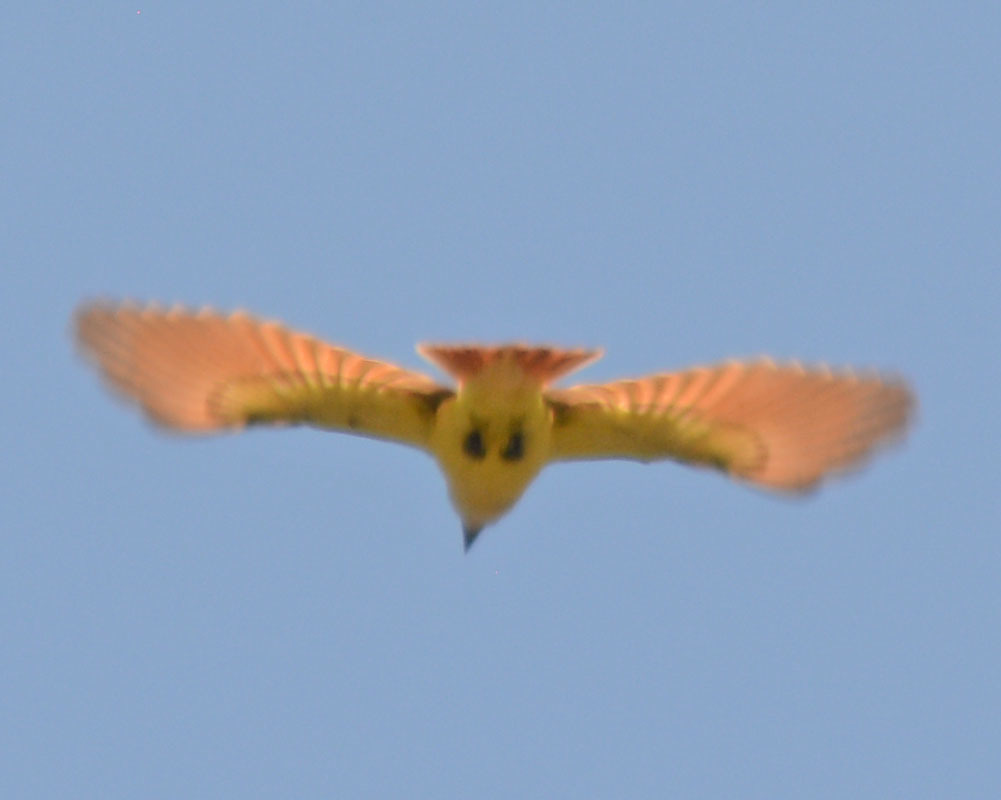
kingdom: Animalia
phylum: Chordata
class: Aves
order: Passeriformes
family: Tyrannidae
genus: Pitangus
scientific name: Pitangus sulphuratus
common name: Great kiskadee
